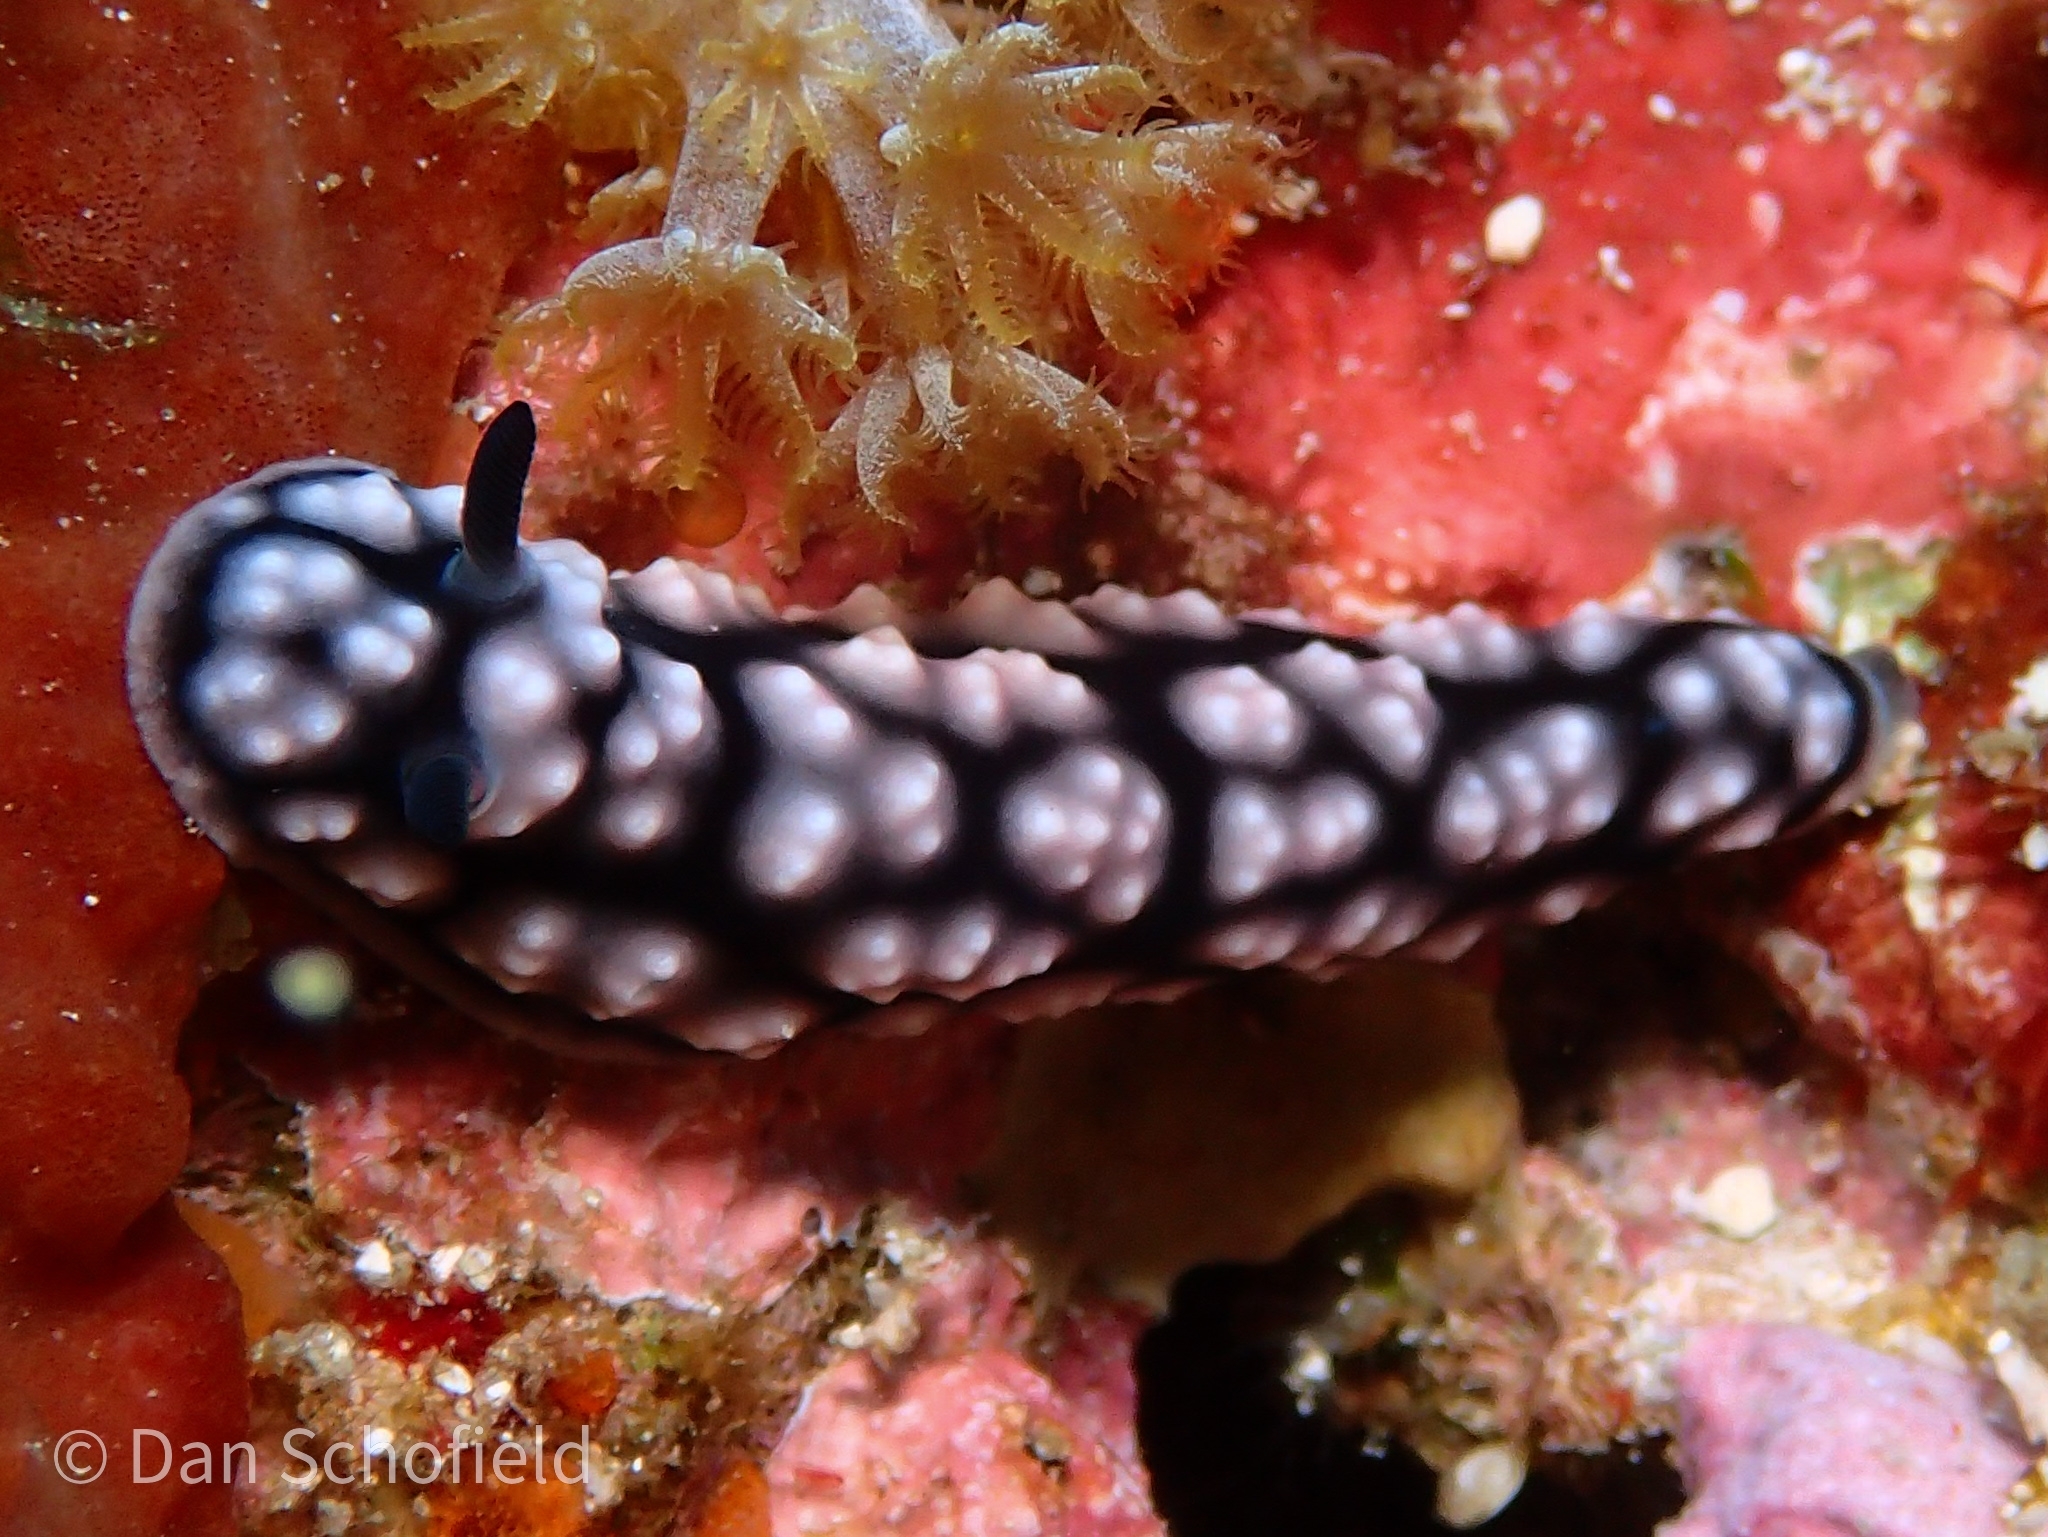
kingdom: Animalia
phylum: Mollusca
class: Gastropoda
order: Nudibranchia
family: Phyllidiidae
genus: Phyllidiella
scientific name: Phyllidiella pustulosa
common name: Pustular phyllidia
